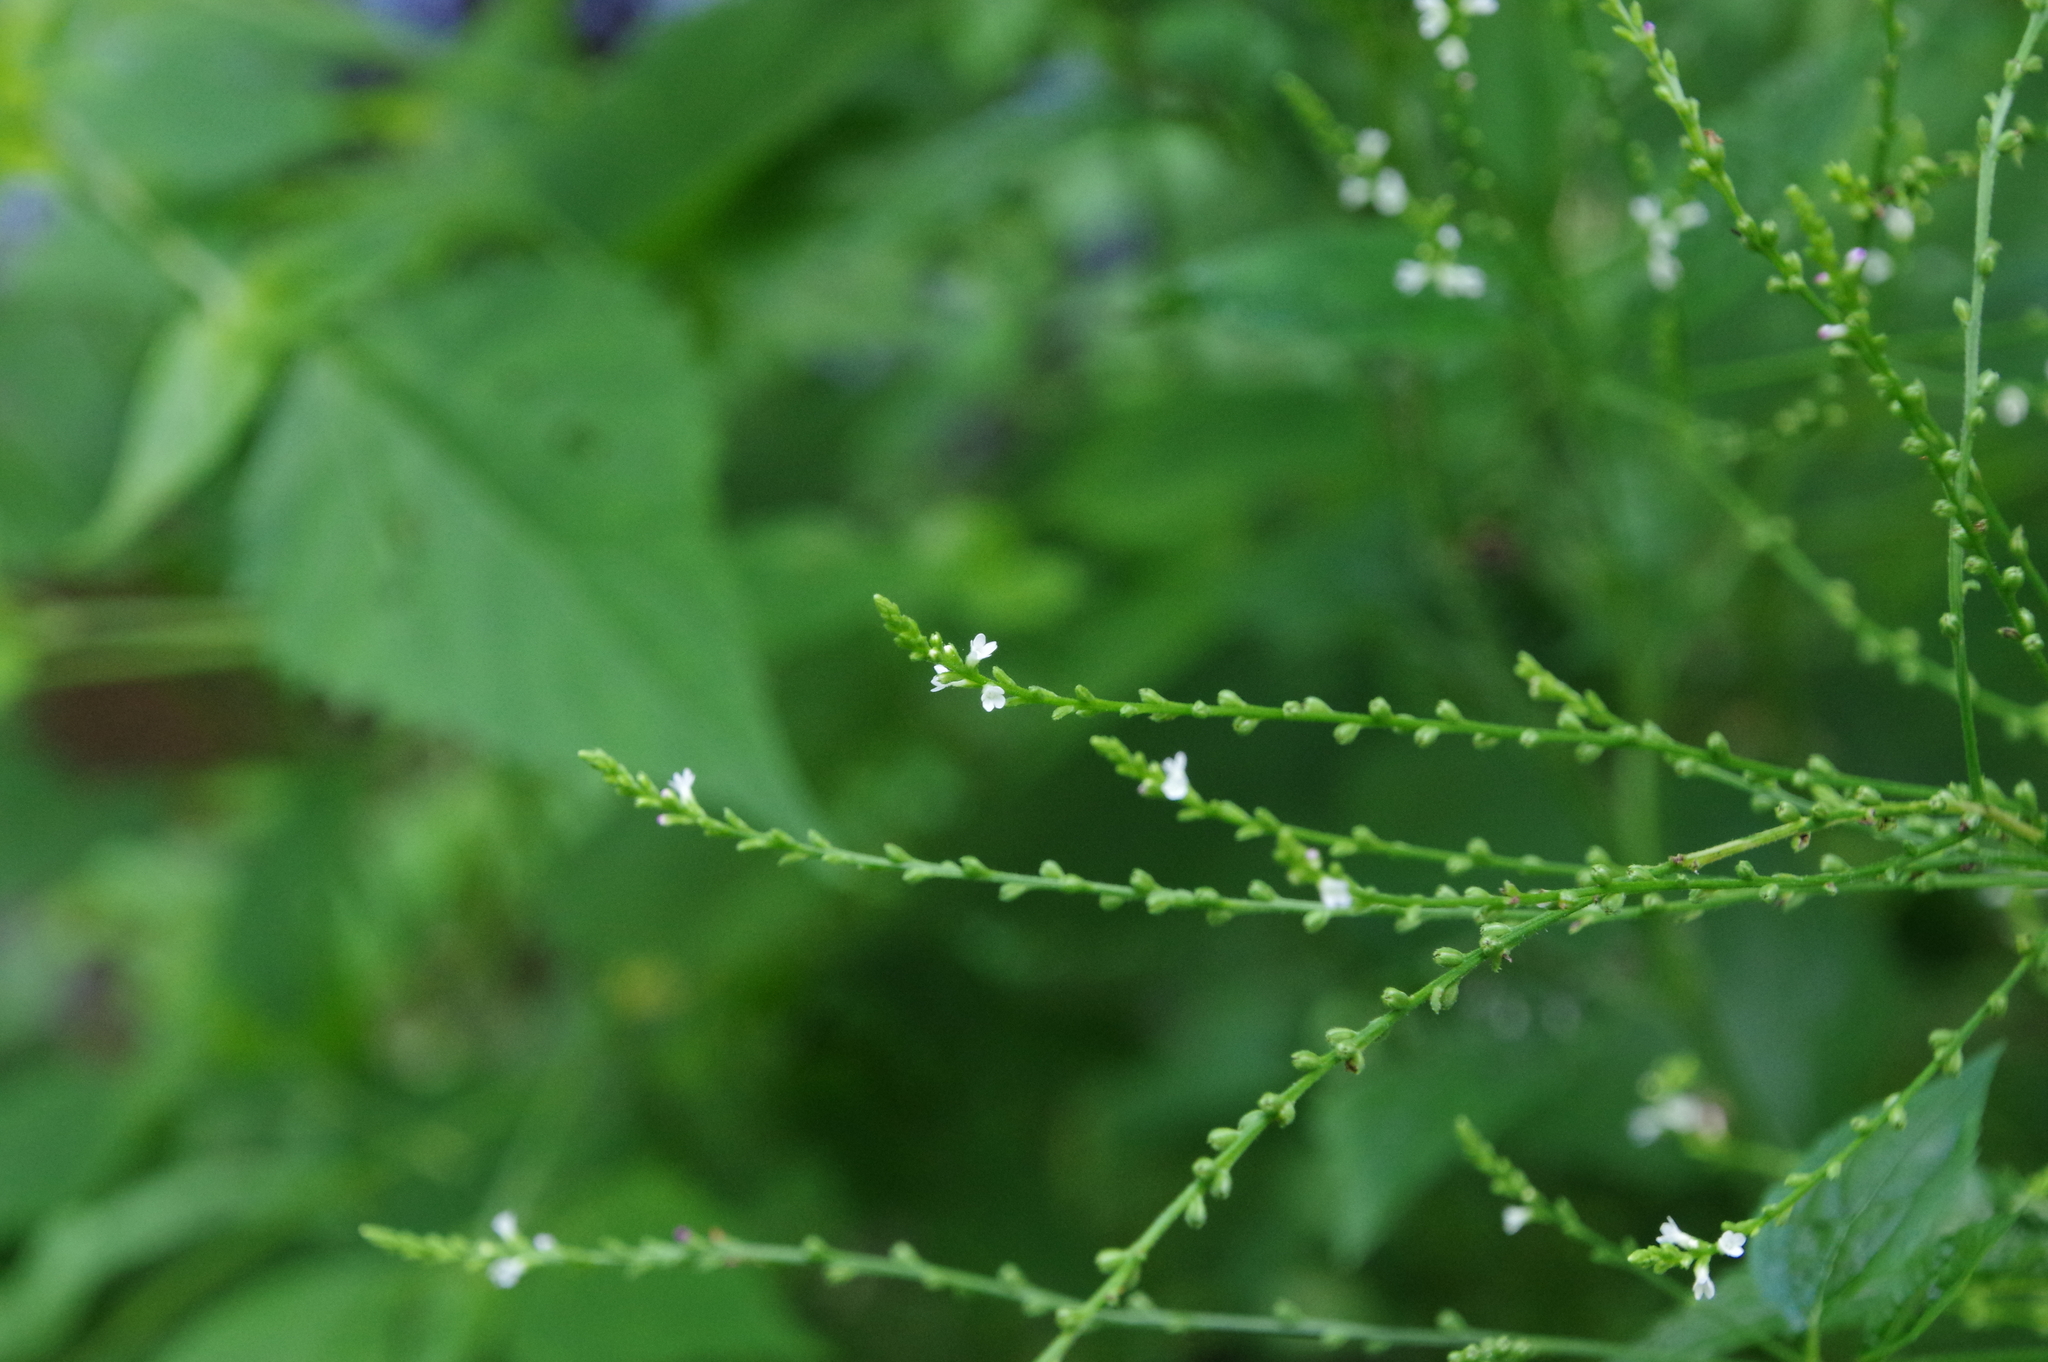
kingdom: Plantae
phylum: Tracheophyta
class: Magnoliopsida
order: Lamiales
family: Verbenaceae
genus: Verbena
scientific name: Verbena urticifolia
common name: Nettle-leaved vervain
